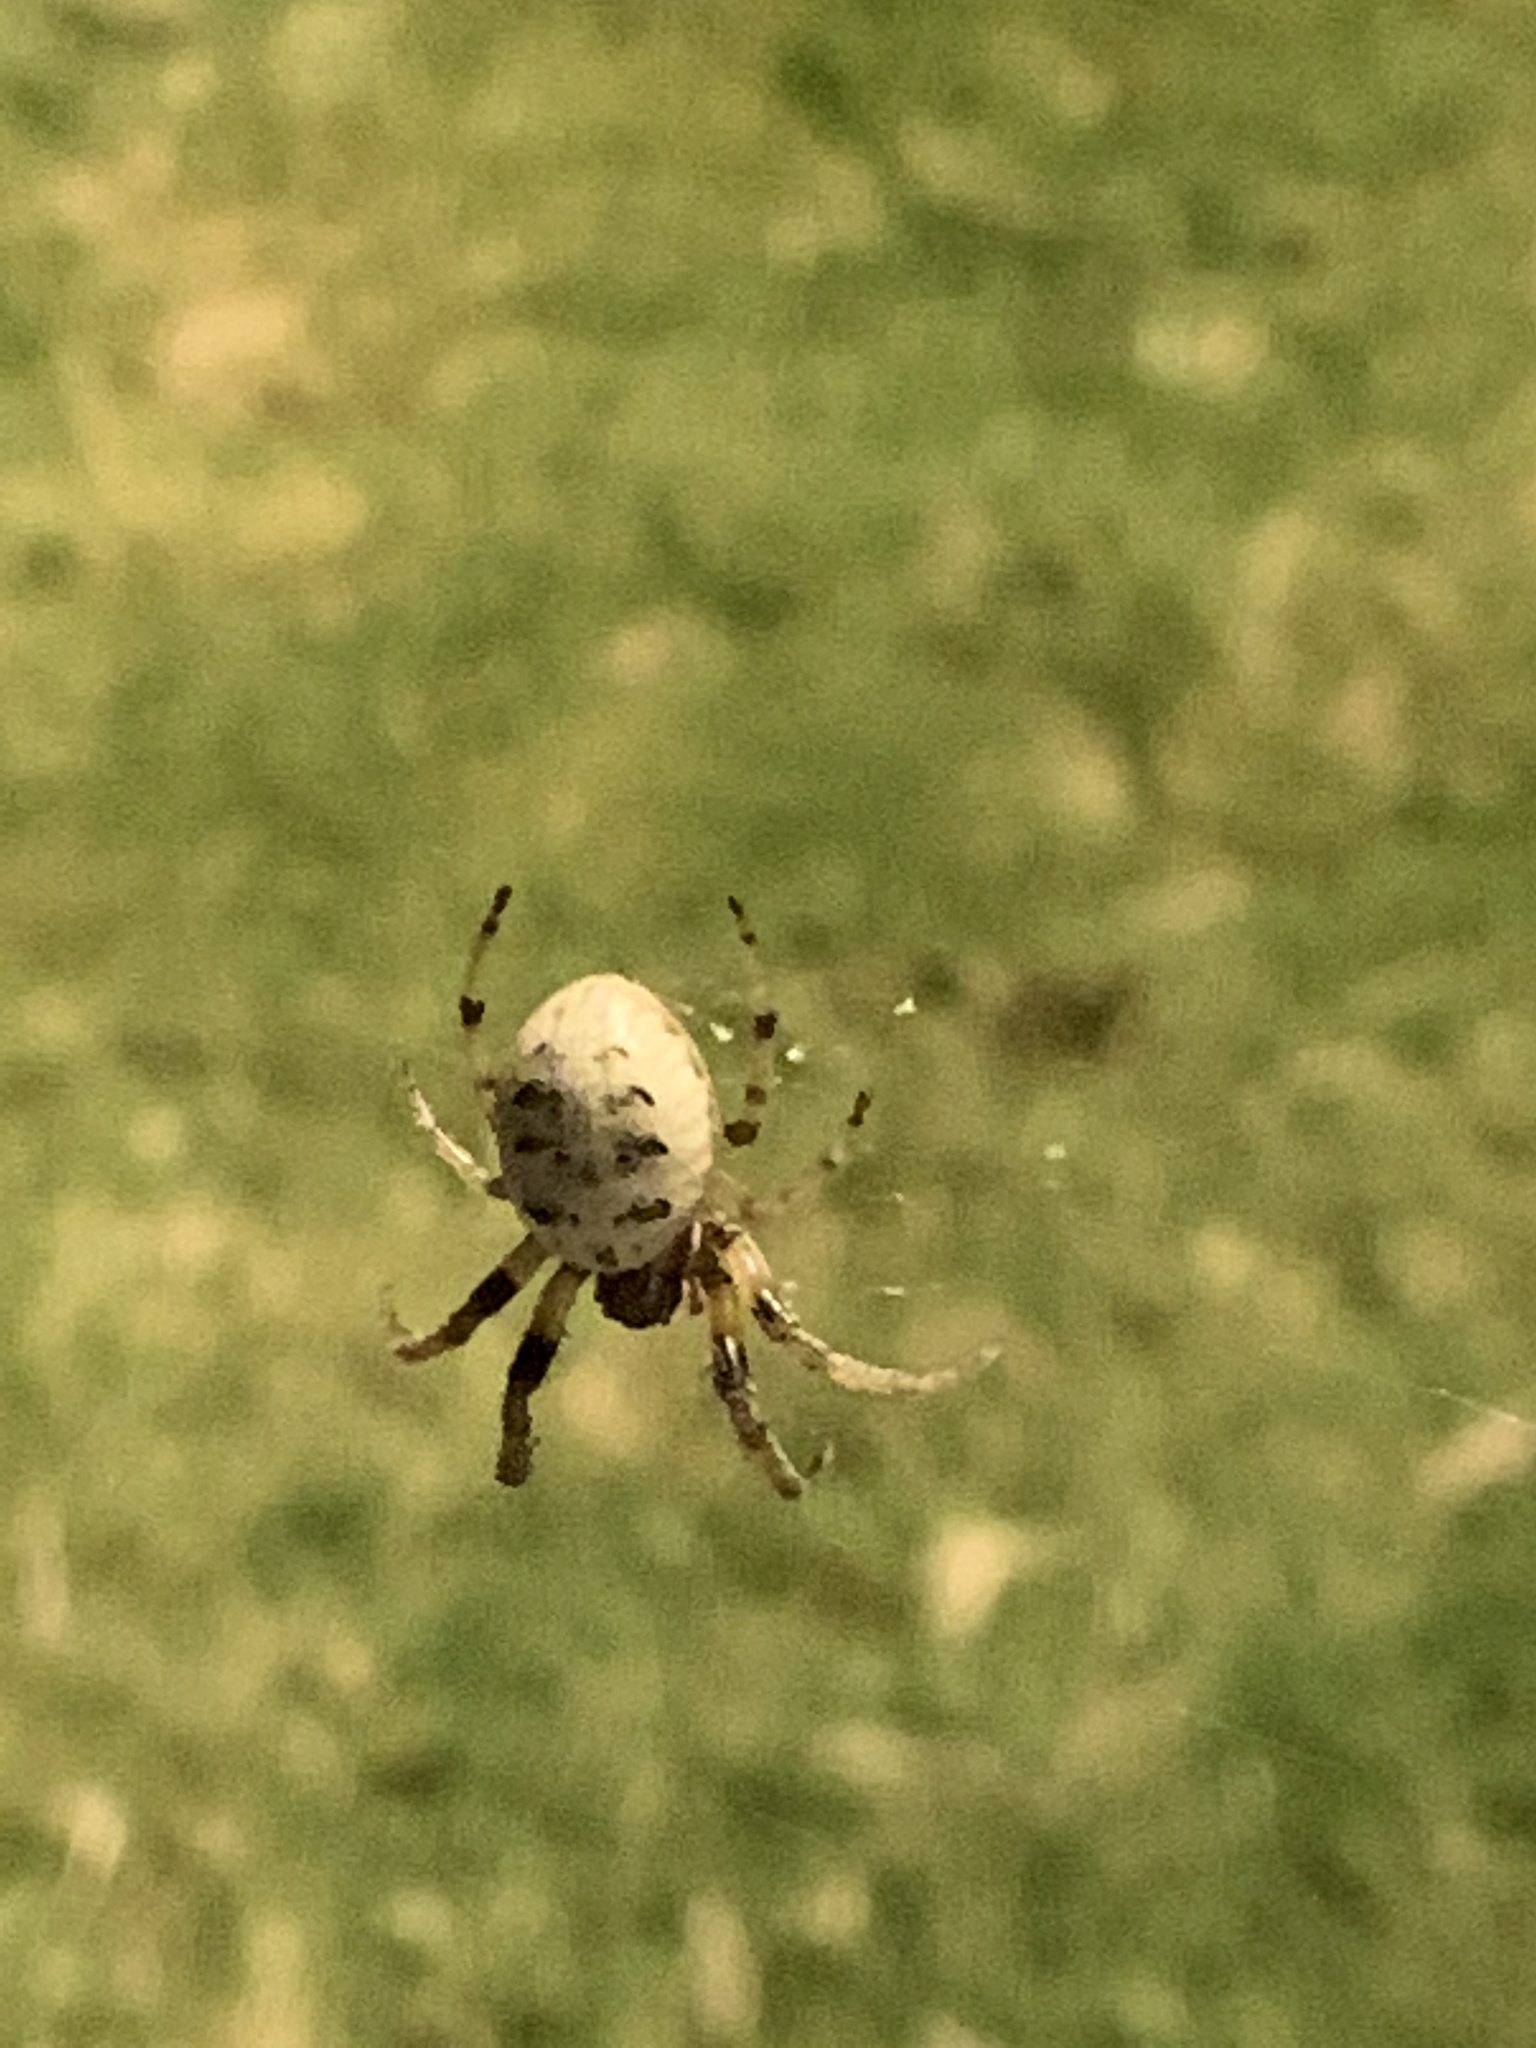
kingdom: Animalia
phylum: Arthropoda
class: Arachnida
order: Araneae
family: Araneidae
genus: Larinioides
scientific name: Larinioides cornutus
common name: Furrow orbweaver
